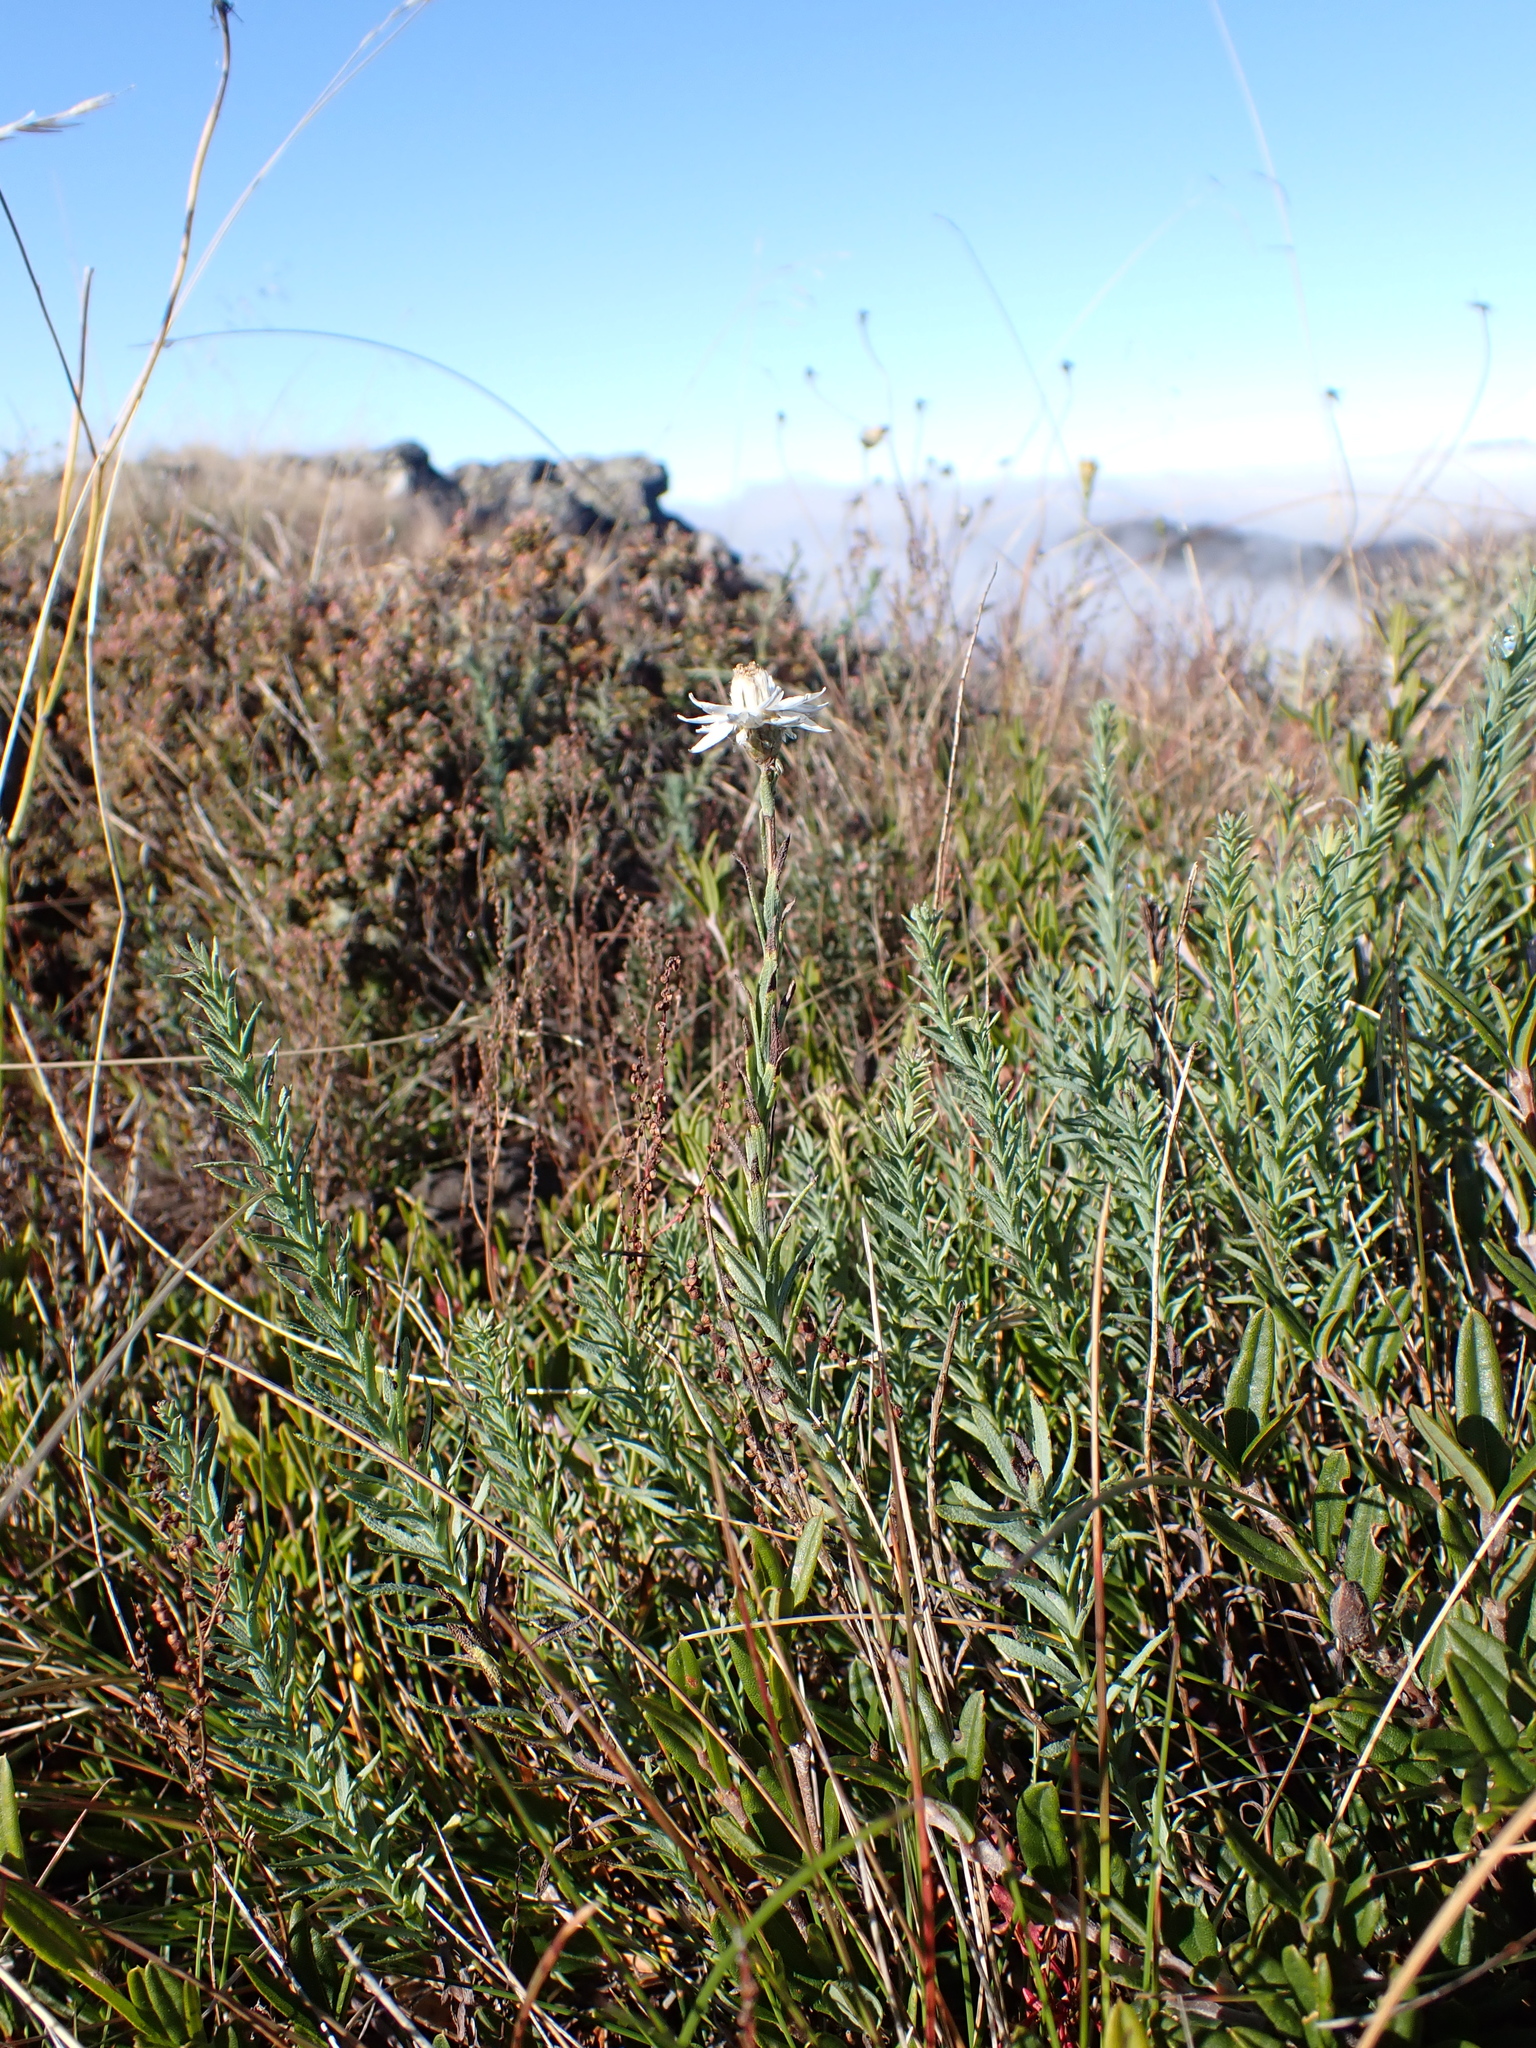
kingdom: Plantae
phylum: Tracheophyta
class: Magnoliopsida
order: Asterales
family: Asteraceae
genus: Rhodanthe
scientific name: Rhodanthe anthemoides
